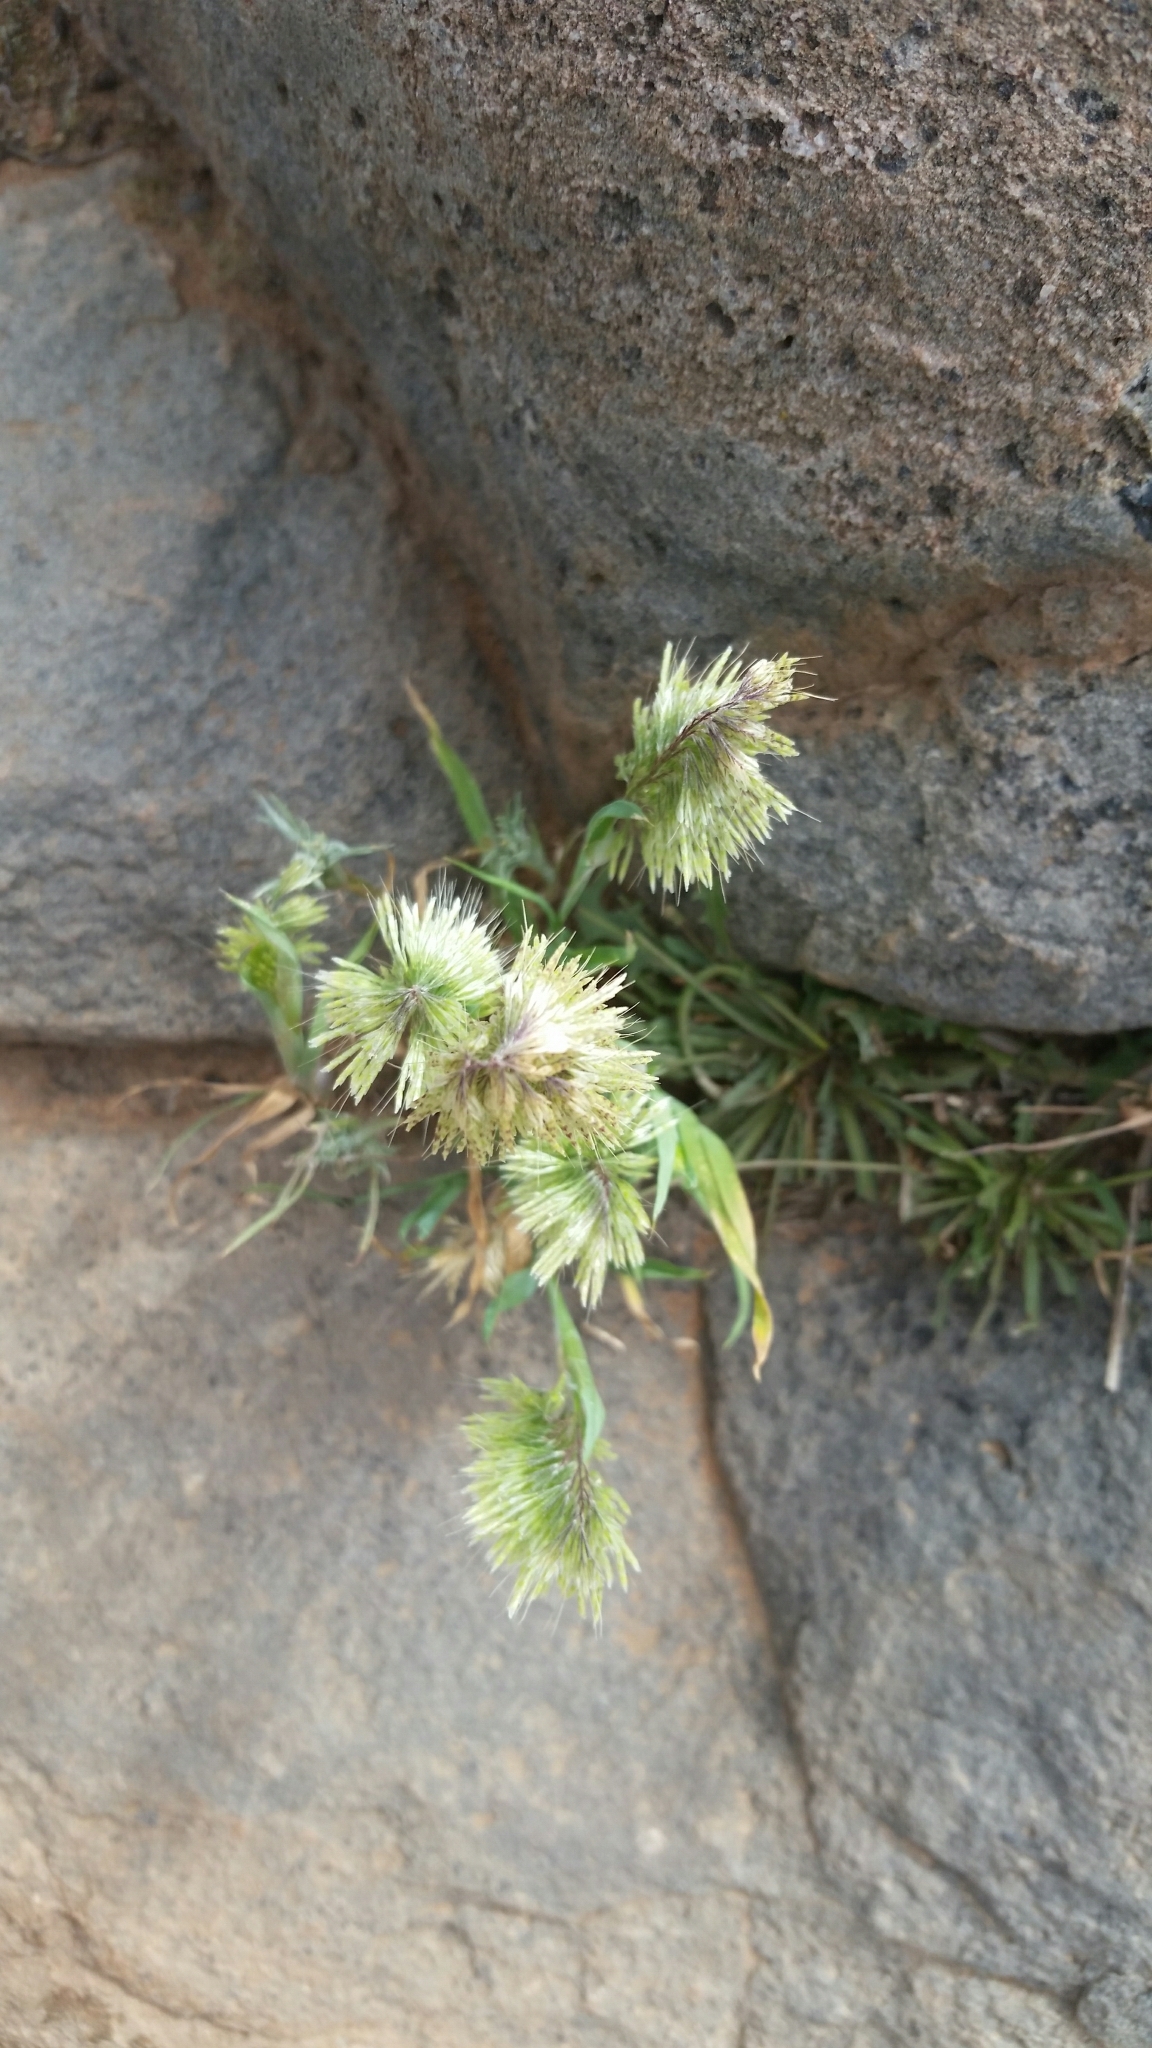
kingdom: Plantae
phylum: Tracheophyta
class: Liliopsida
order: Poales
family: Poaceae
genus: Lamarckia
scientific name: Lamarckia aurea
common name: Golden dog's-tail
